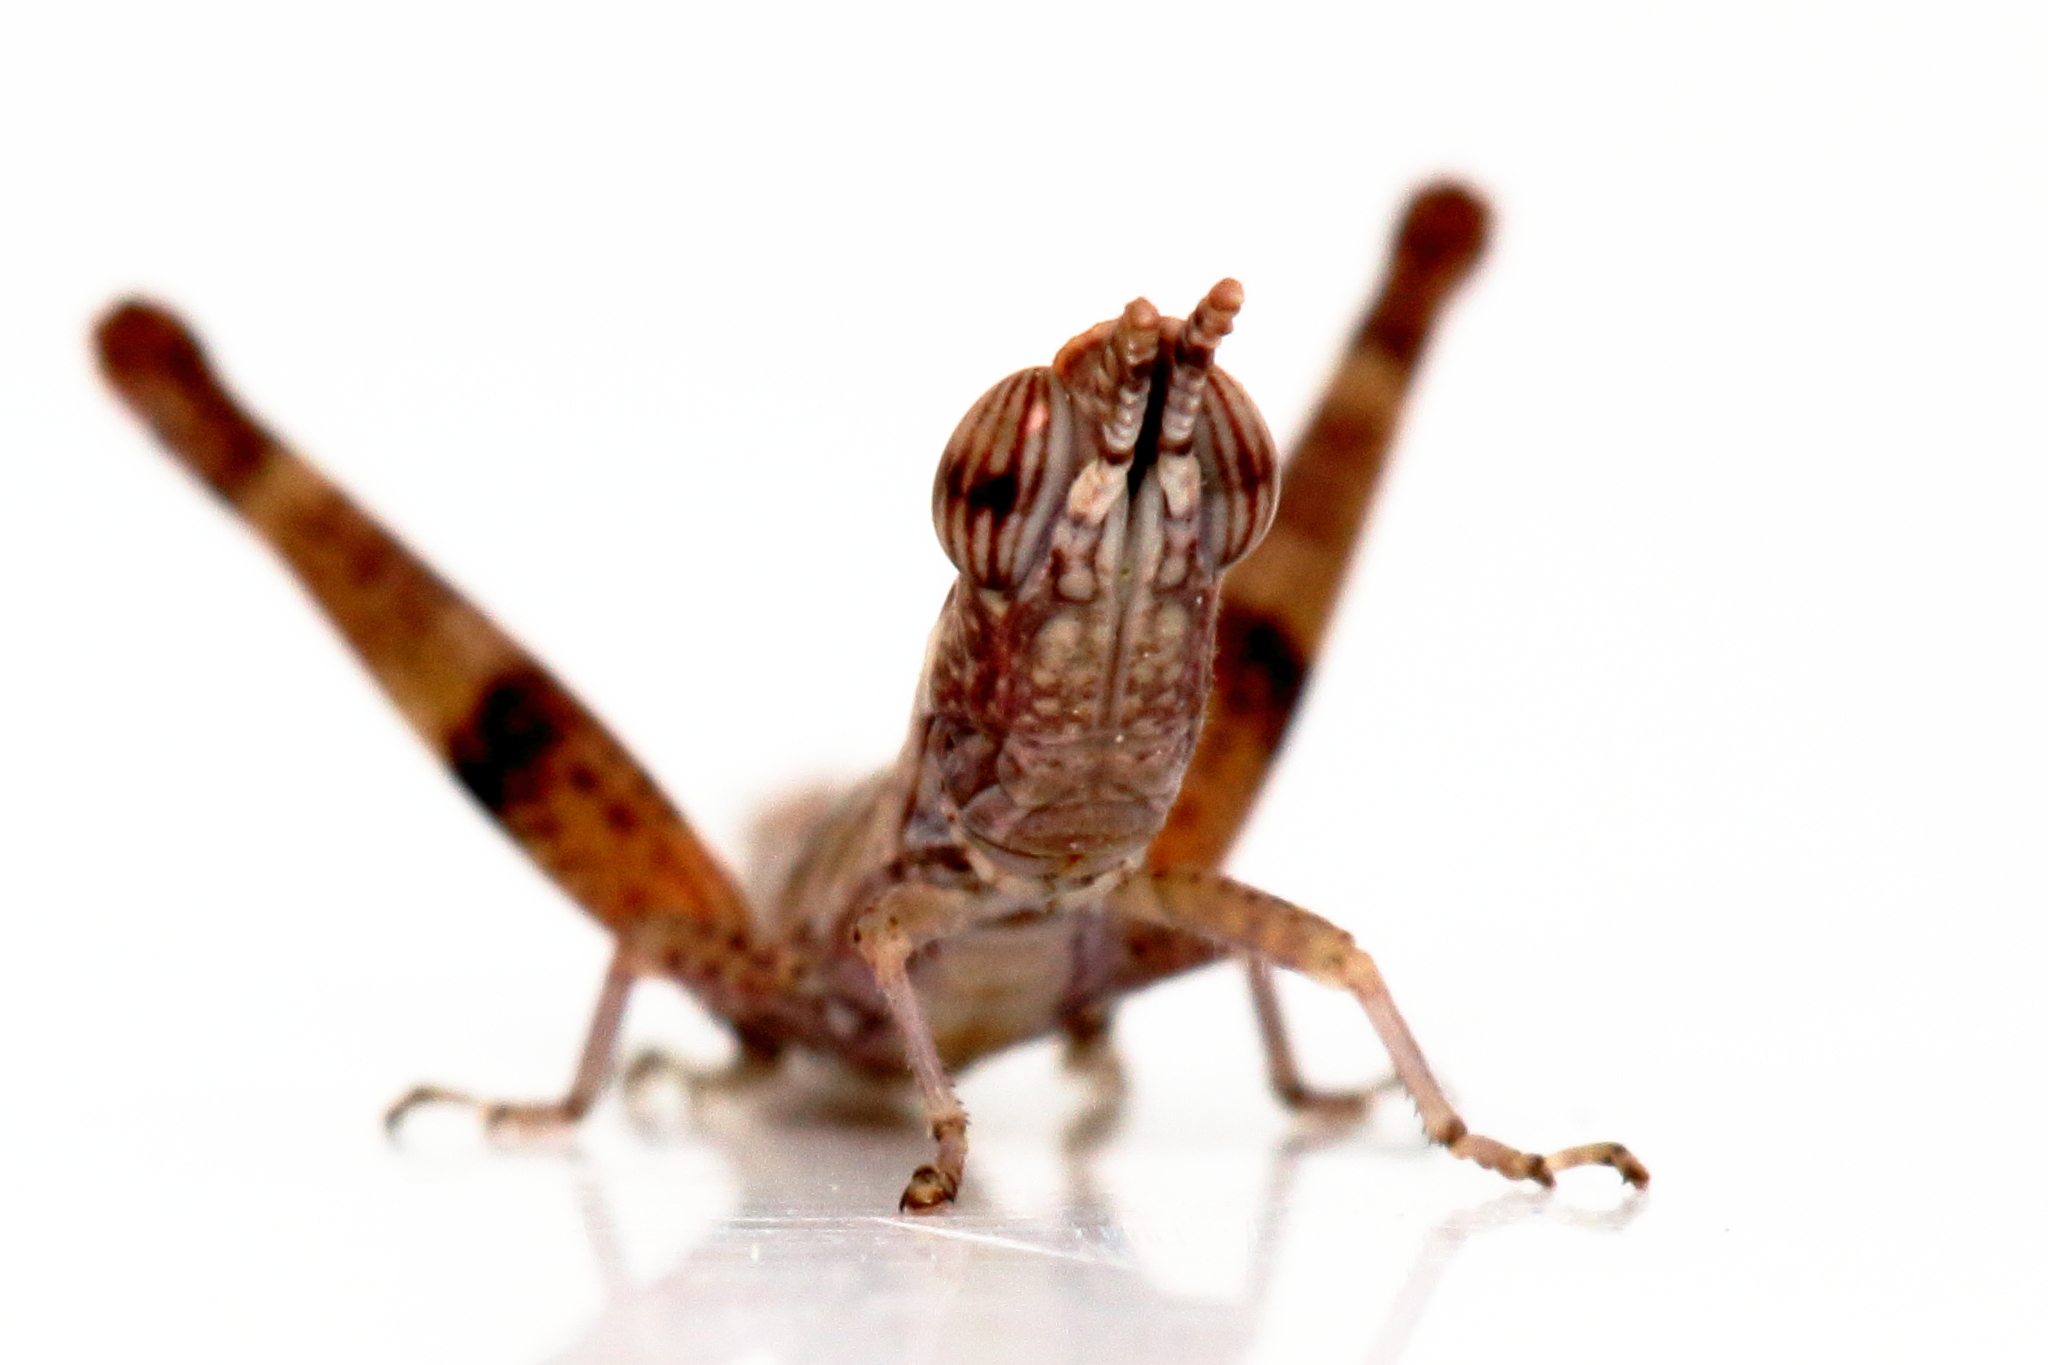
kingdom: Animalia
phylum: Arthropoda
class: Insecta
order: Orthoptera
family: Morabidae
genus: Micromeeka
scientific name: Micromeeka minuta
